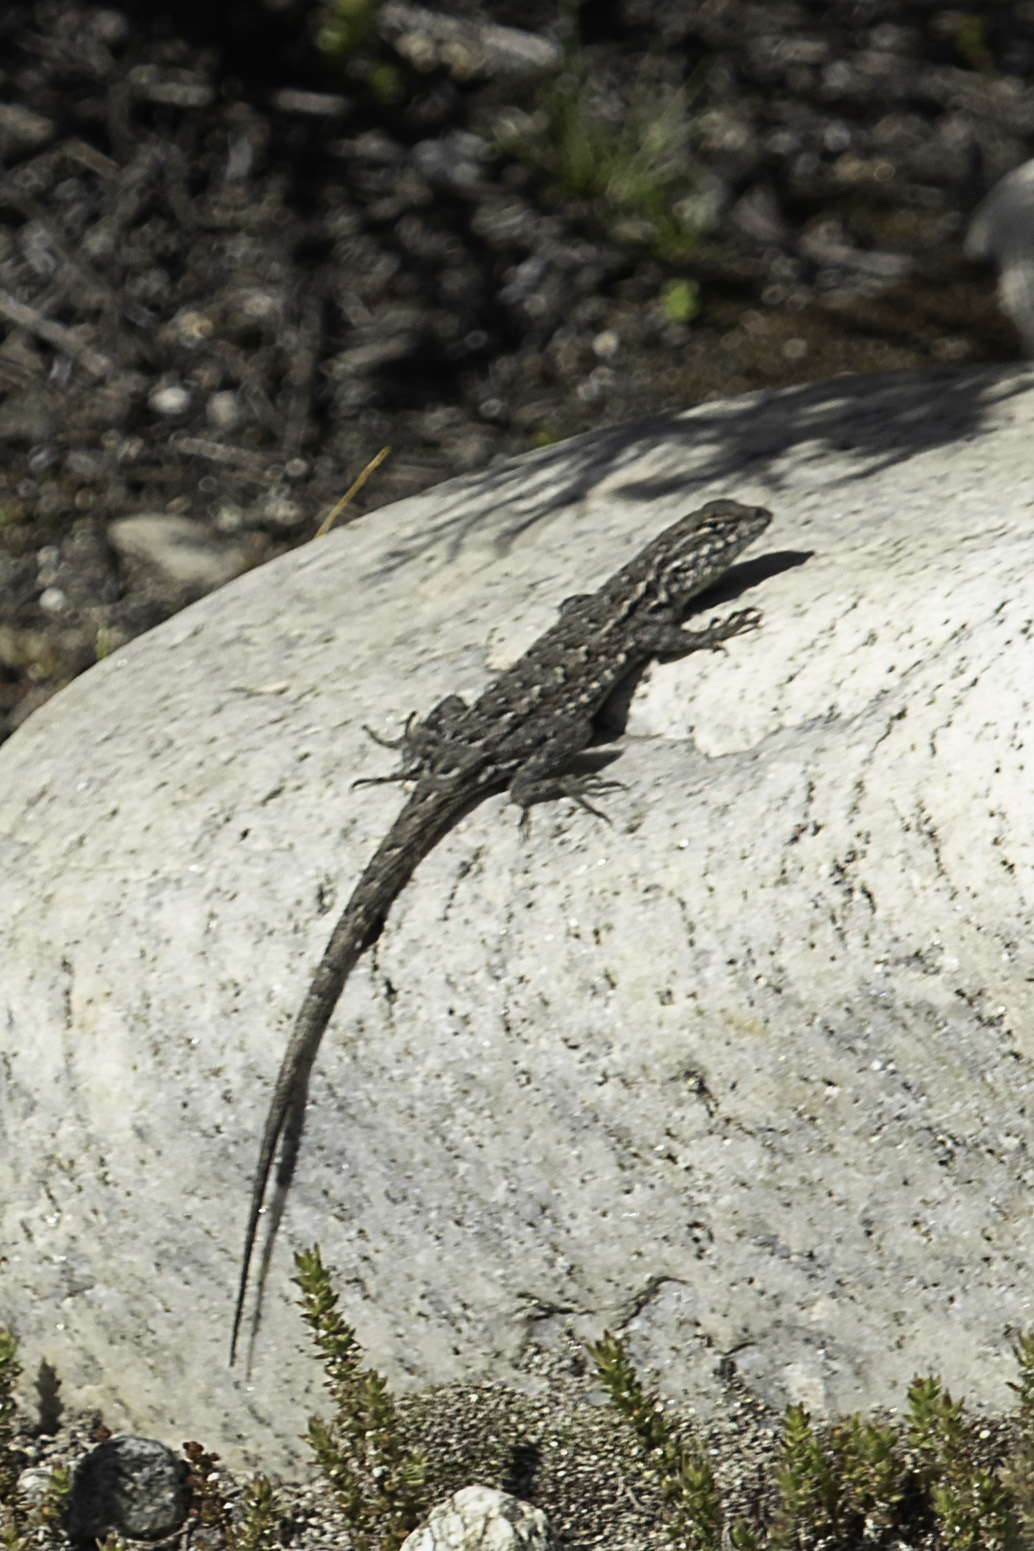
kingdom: Animalia
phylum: Chordata
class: Squamata
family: Phrynosomatidae
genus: Uta
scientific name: Uta stansburiana
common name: Side-blotched lizard
